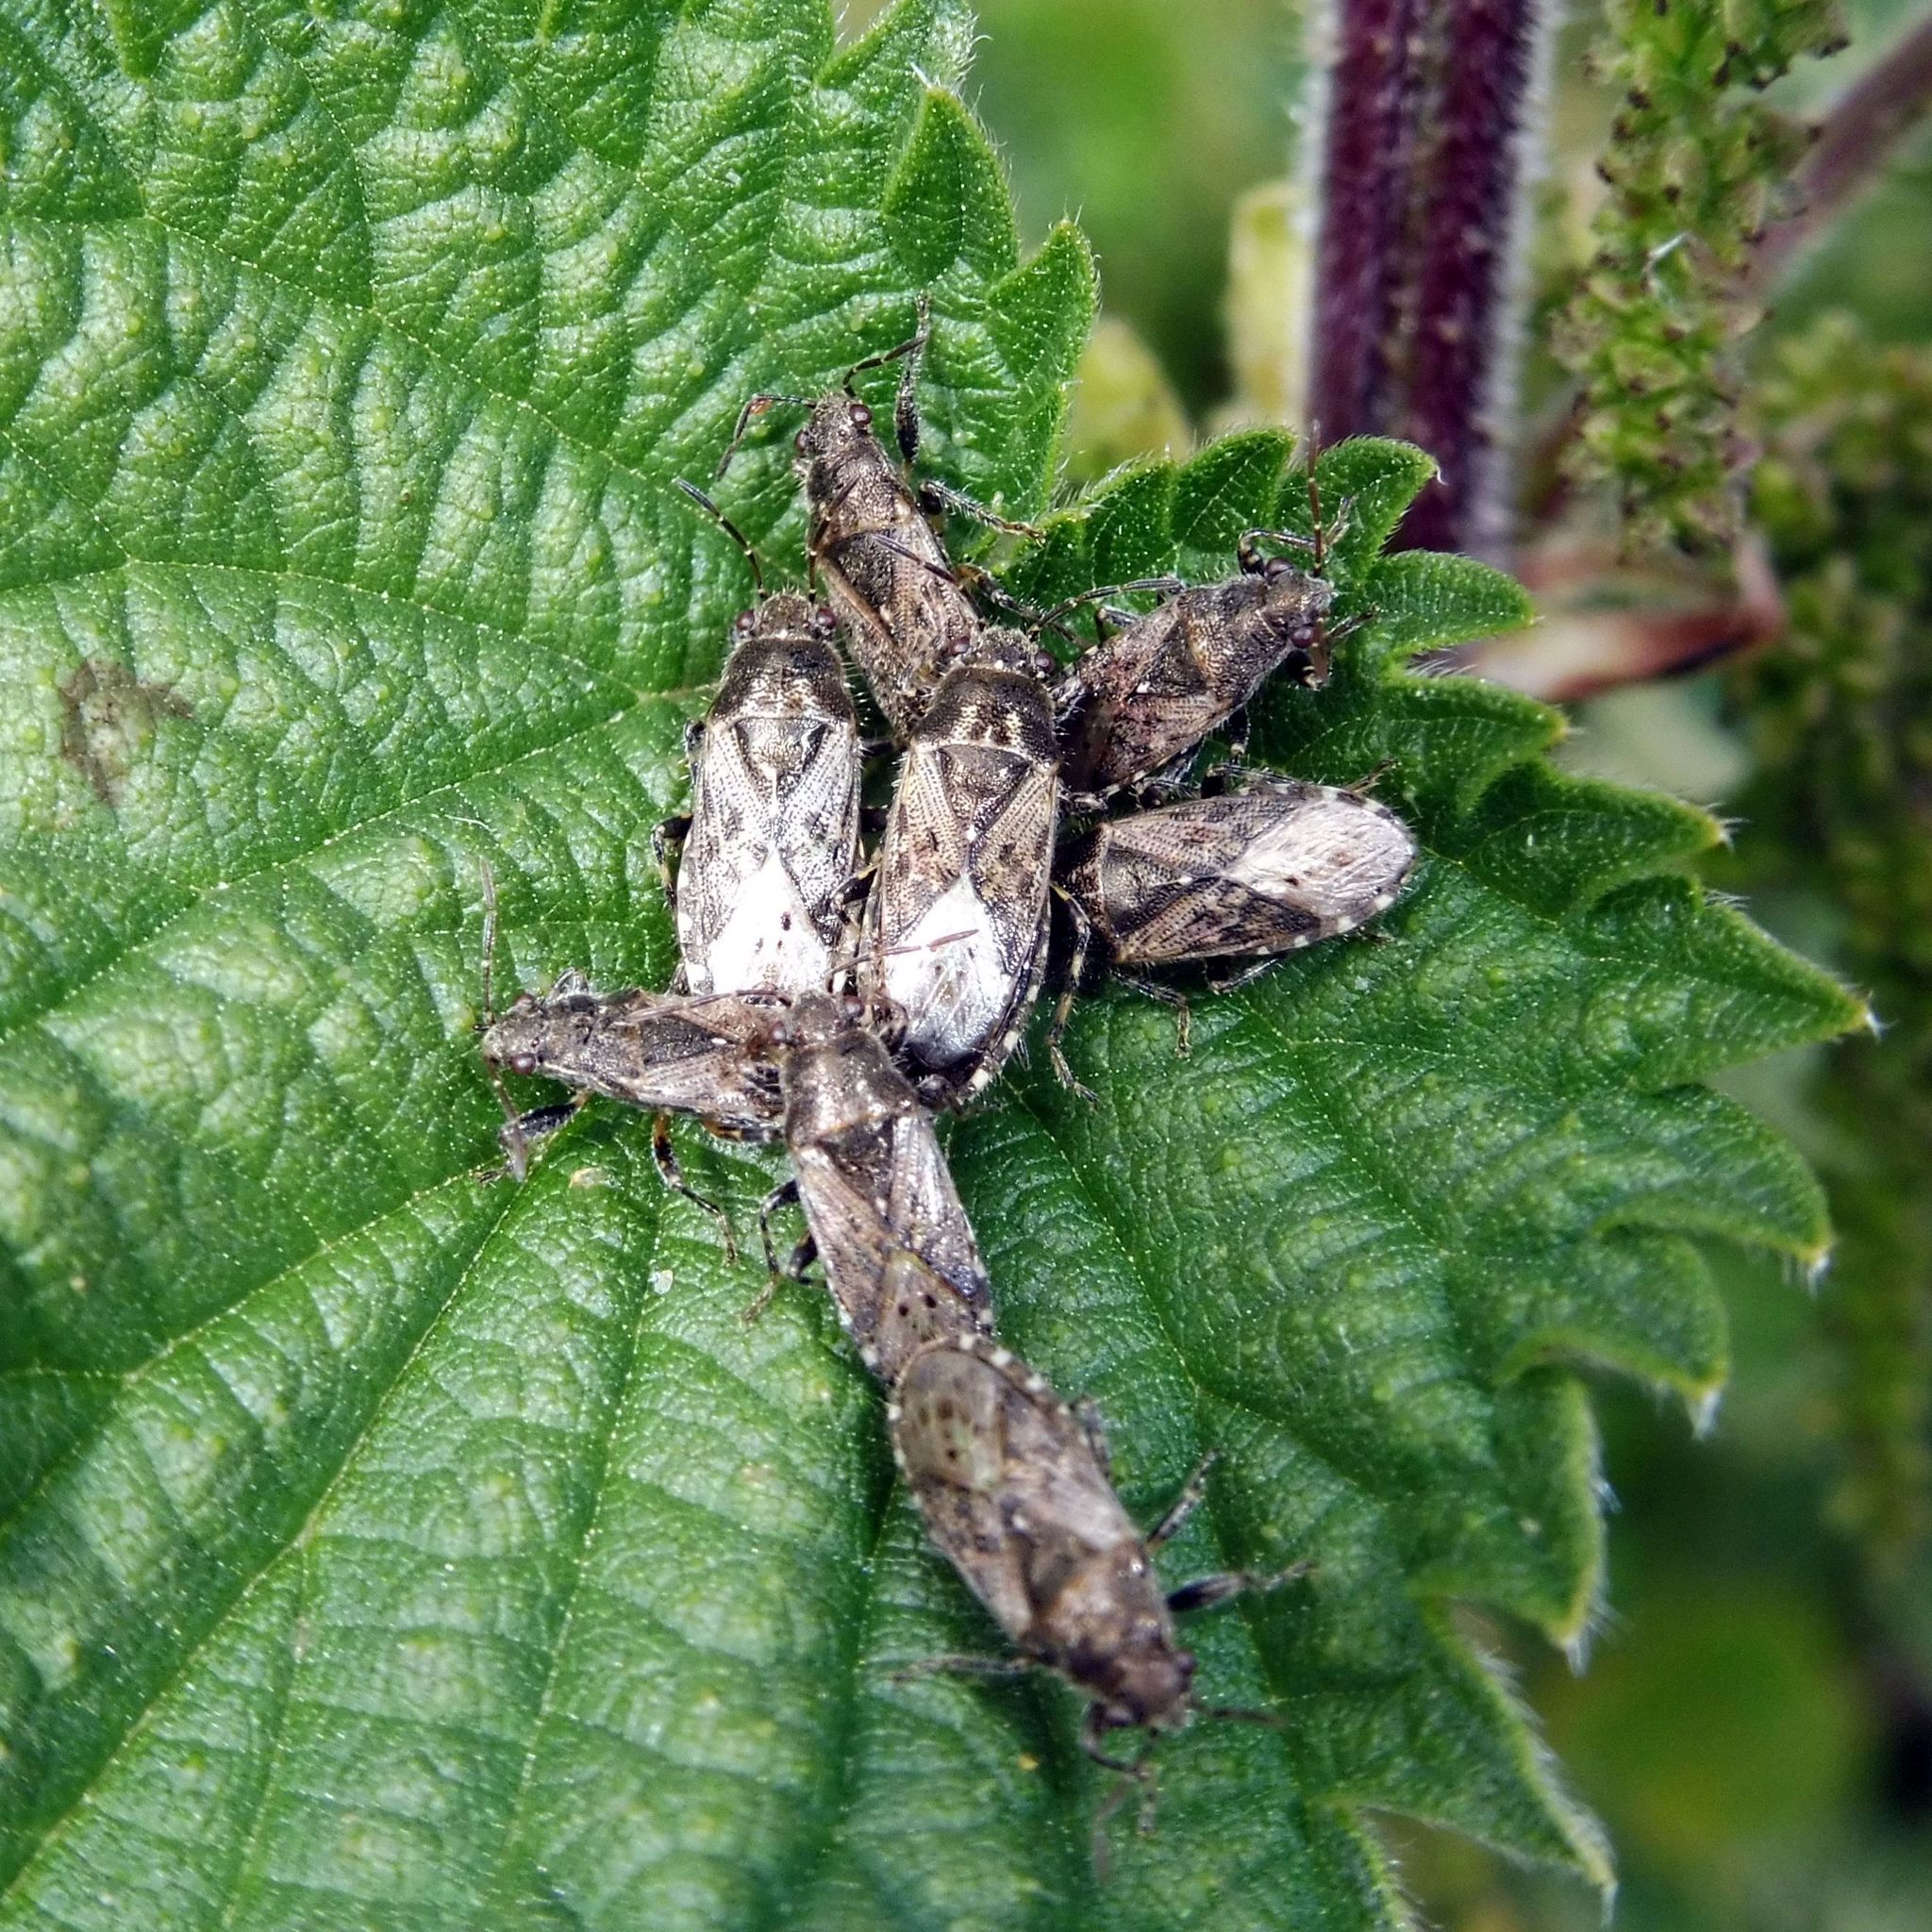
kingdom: Animalia
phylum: Arthropoda
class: Insecta
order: Hemiptera
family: Heterogastridae
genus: Heterogaster
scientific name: Heterogaster urticae
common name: Seed bug
